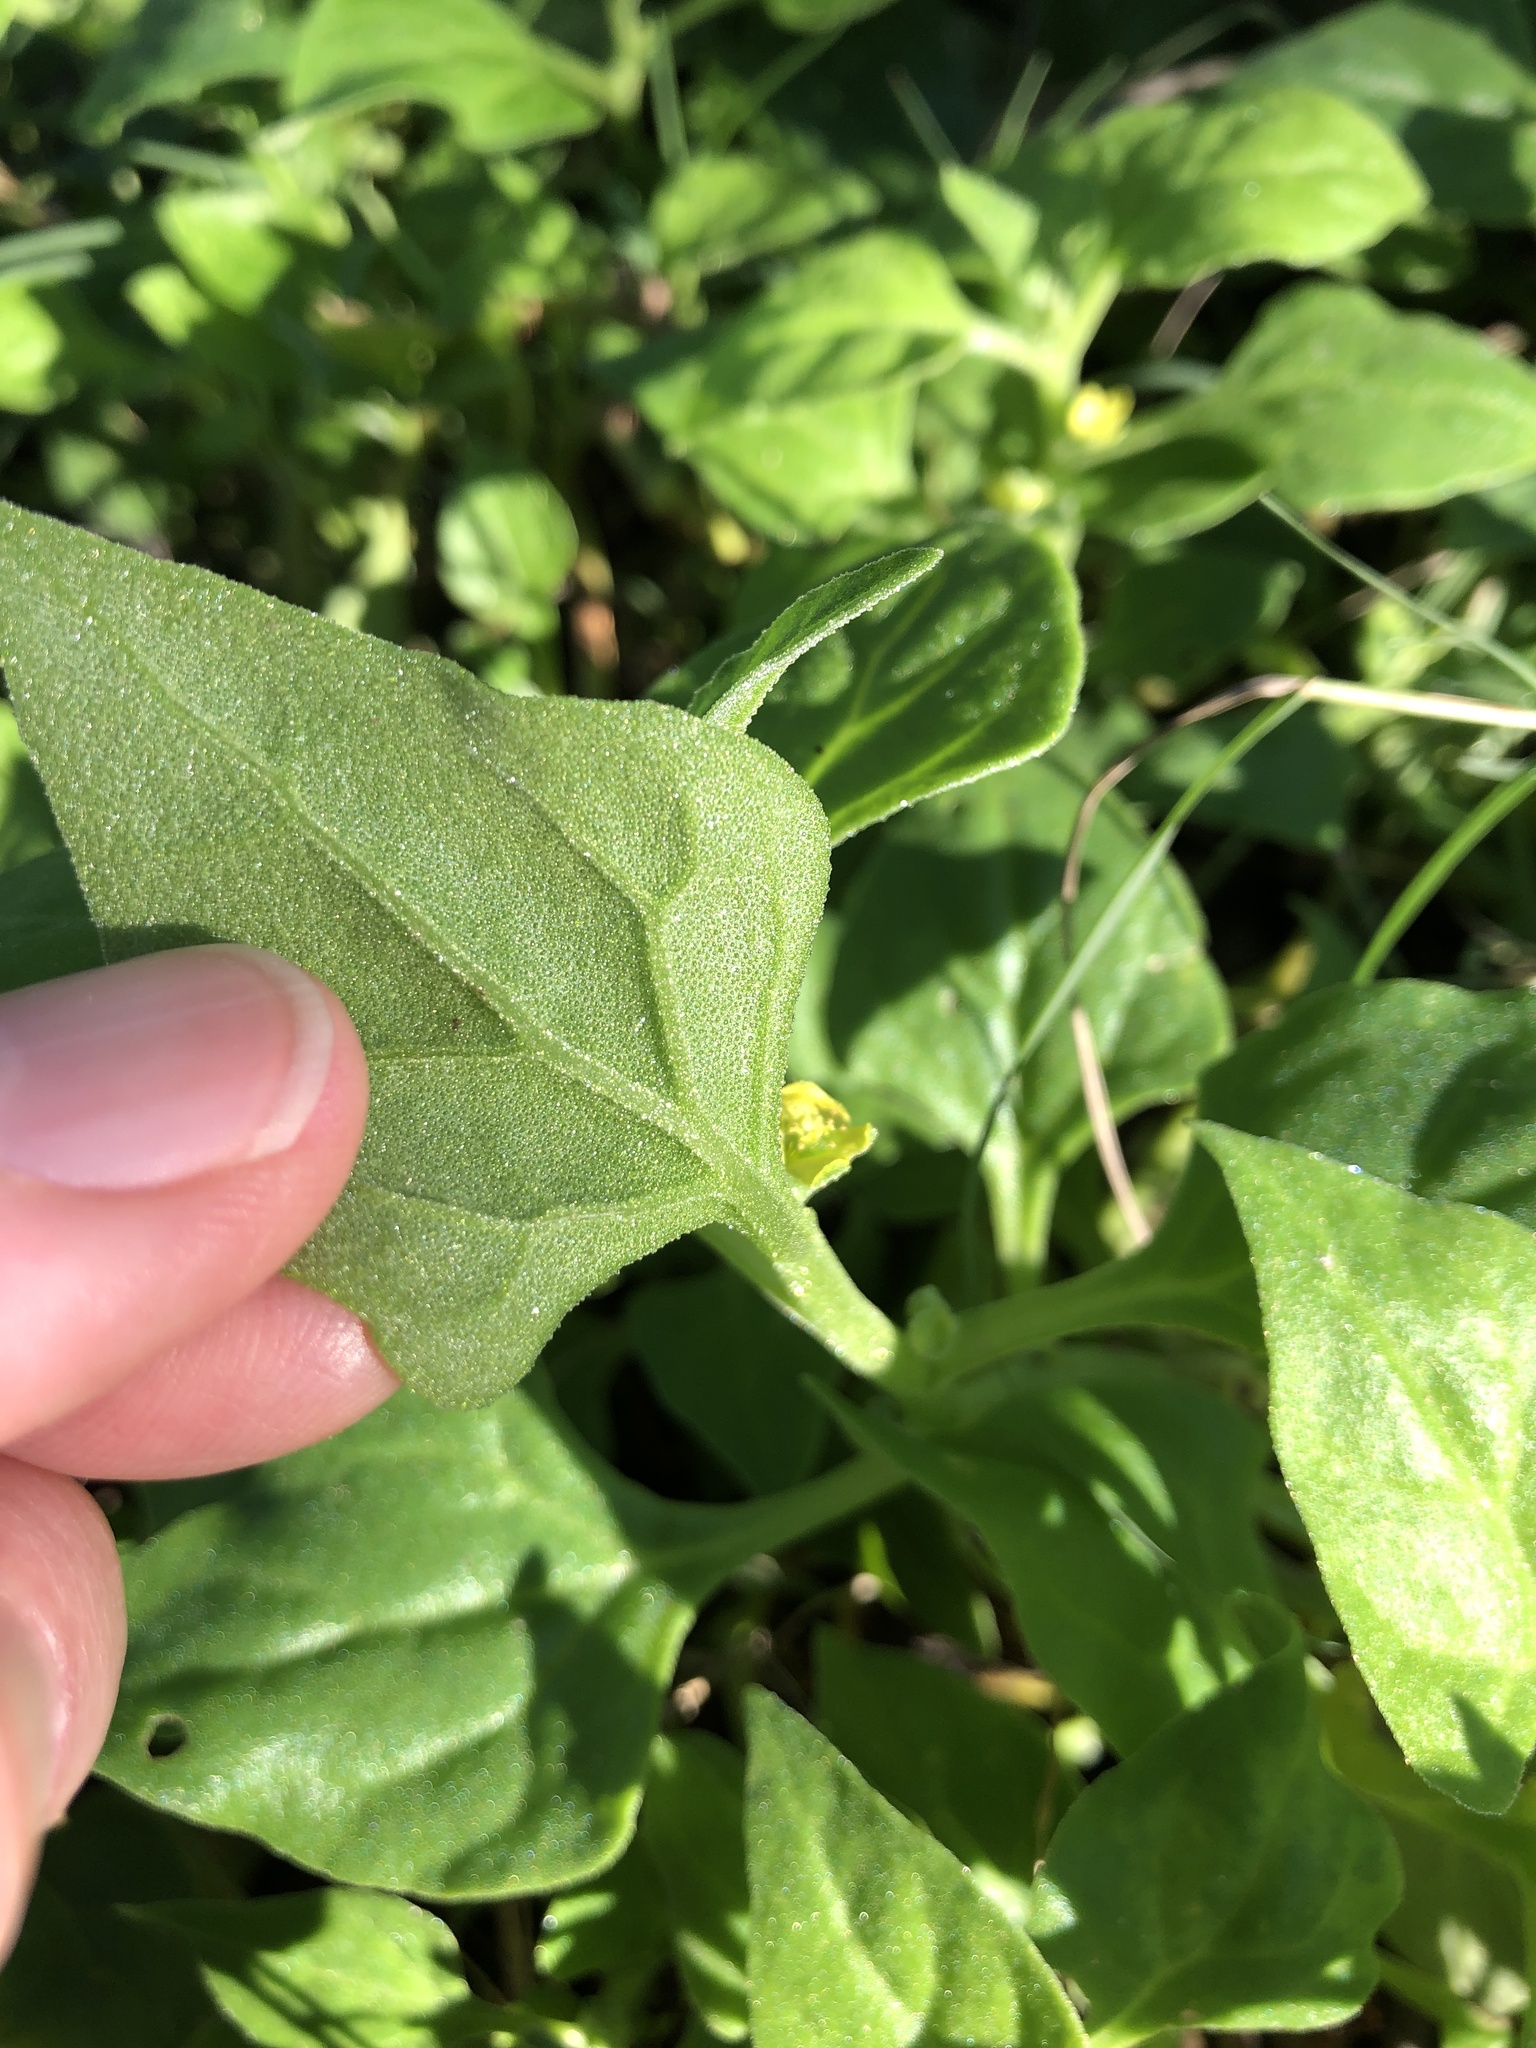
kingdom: Plantae
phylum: Tracheophyta
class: Magnoliopsida
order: Caryophyllales
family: Aizoaceae
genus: Tetragonia
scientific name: Tetragonia tetragonoides
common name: New zealand-spinach
